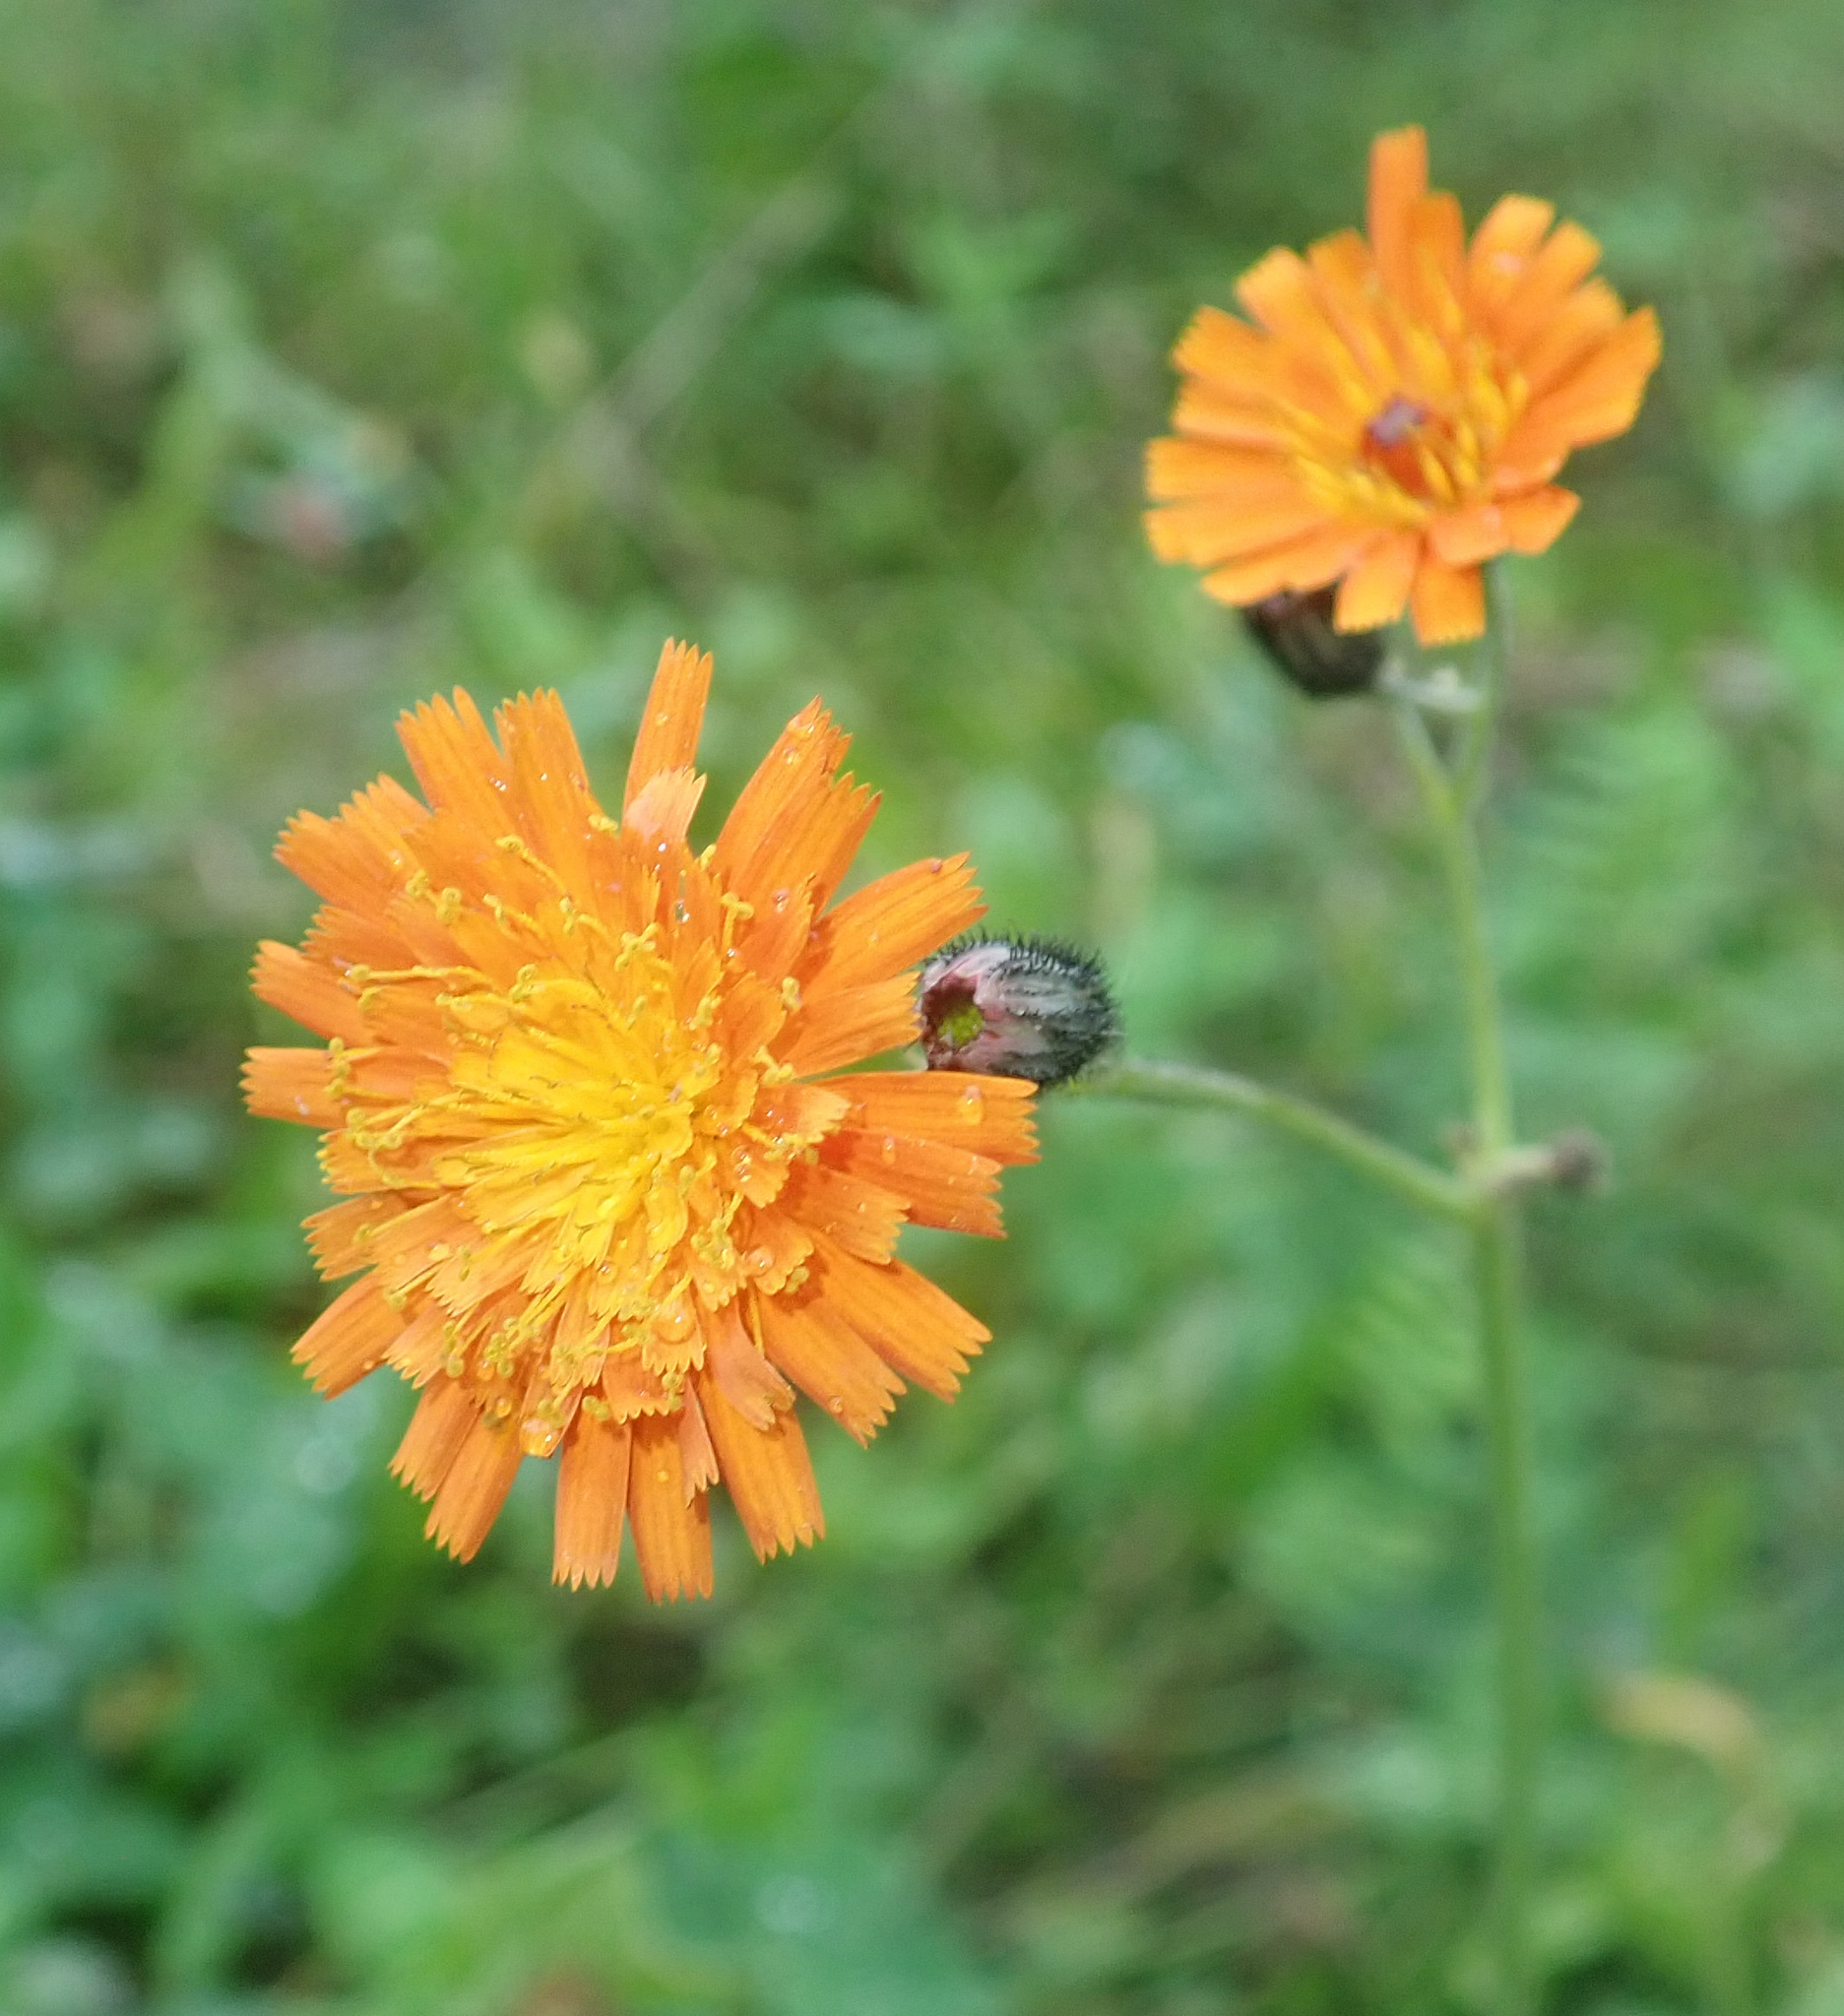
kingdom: Plantae
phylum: Tracheophyta
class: Magnoliopsida
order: Asterales
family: Asteraceae
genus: Pilosella
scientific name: Pilosella aurantiaca
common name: Fox-and-cubs
